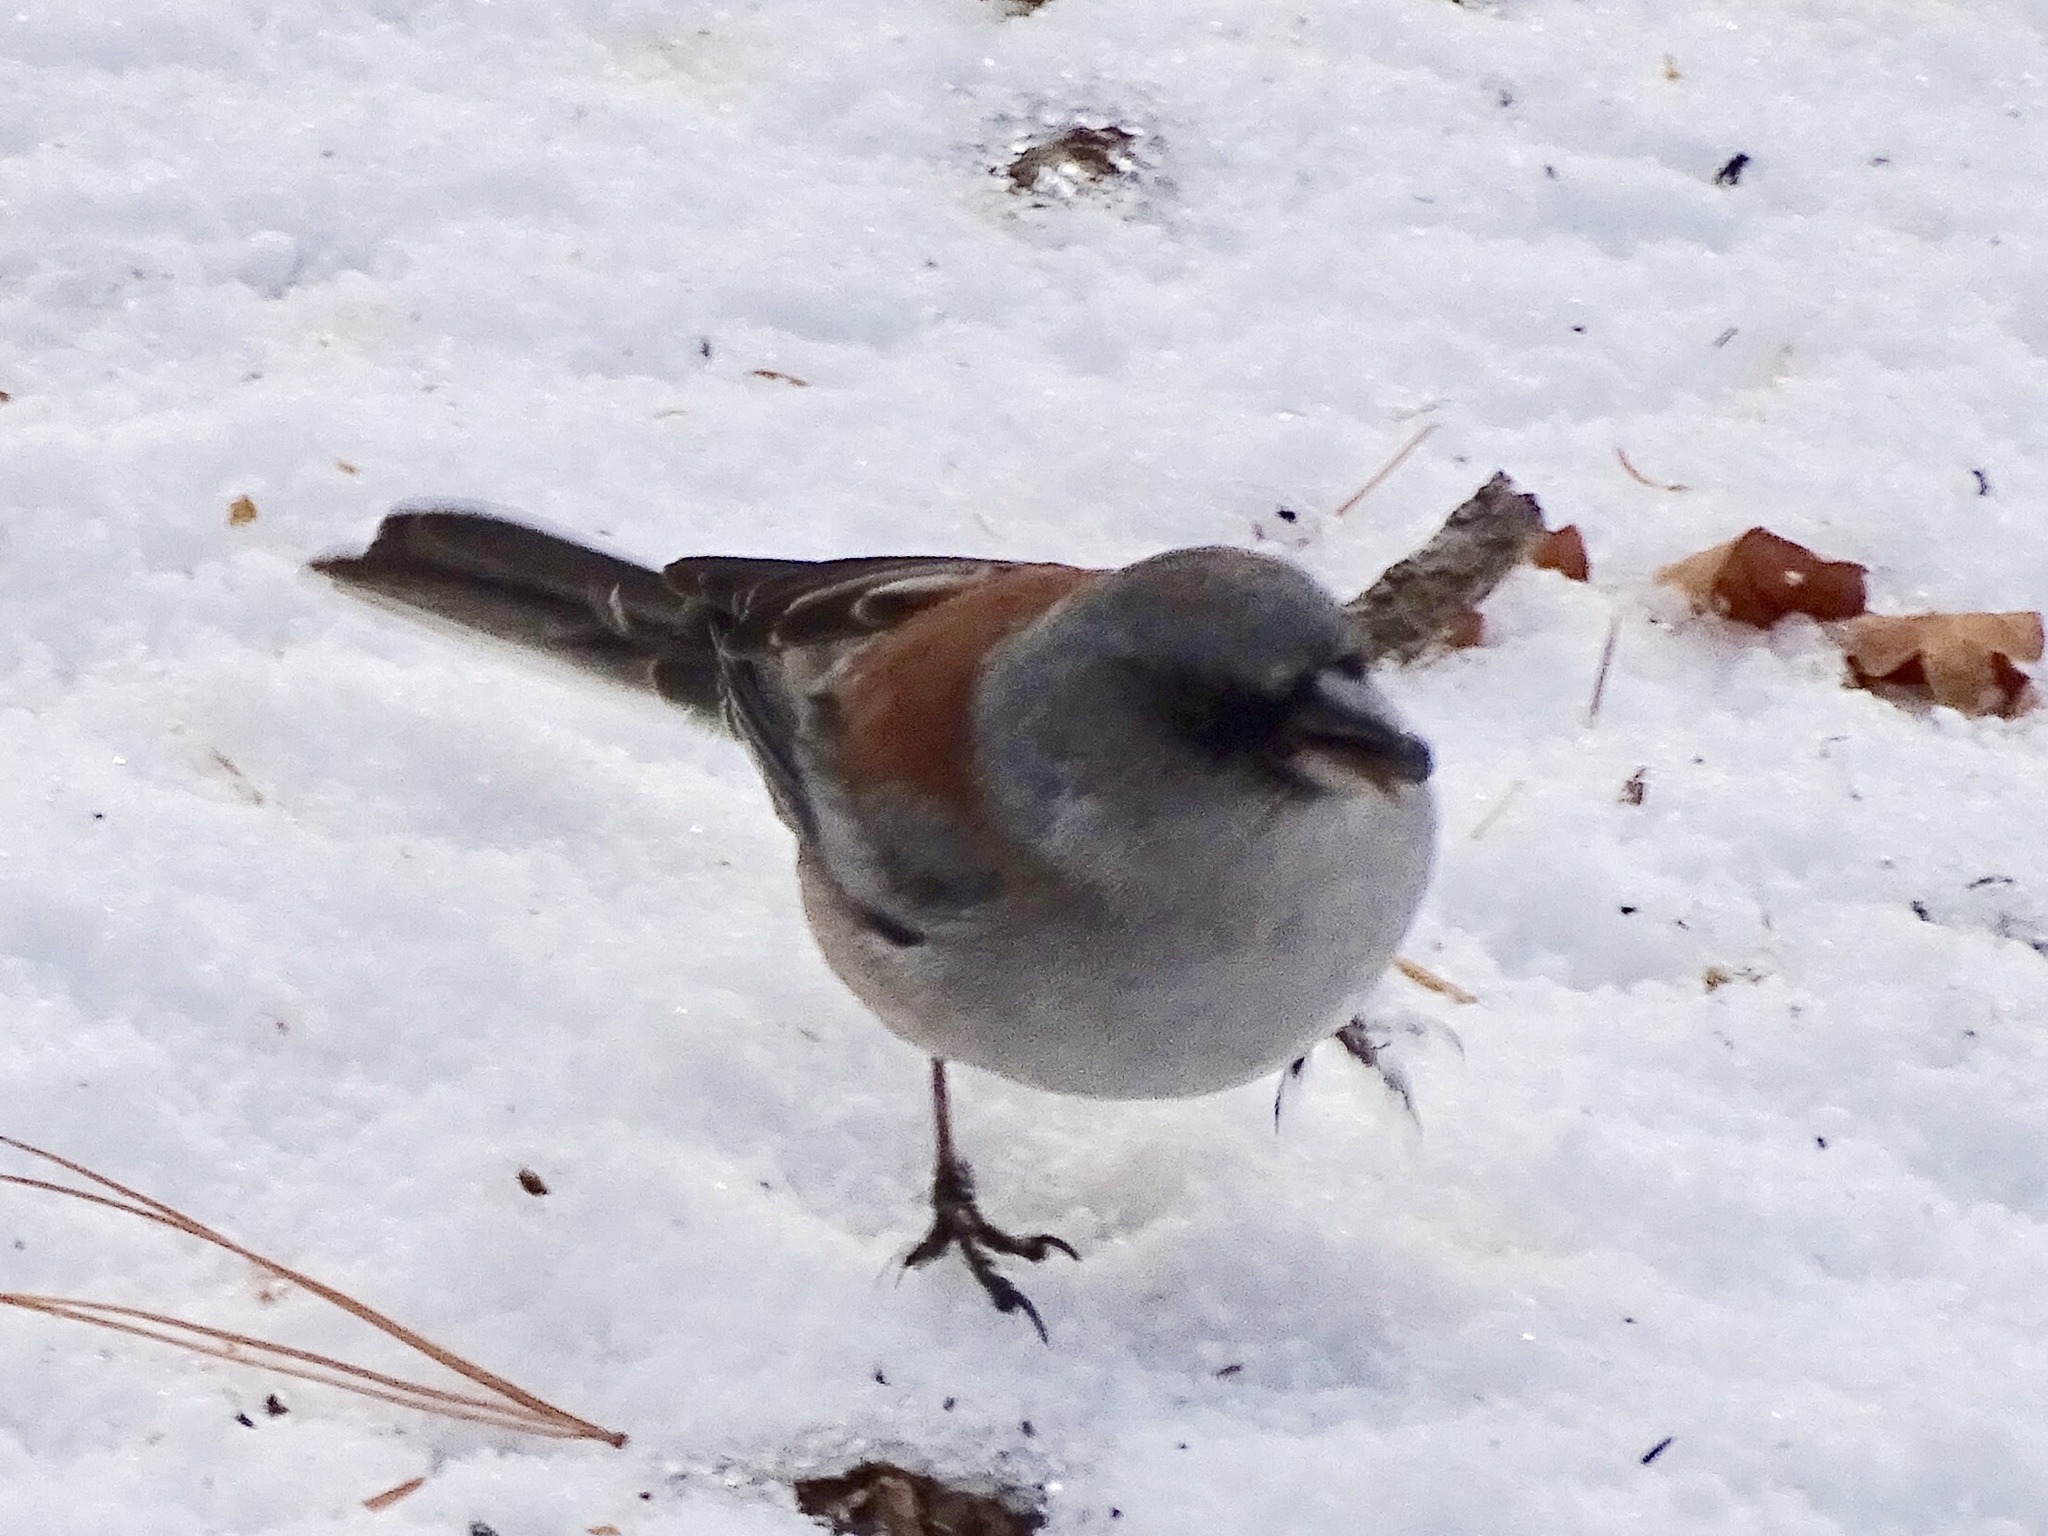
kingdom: Animalia
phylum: Chordata
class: Aves
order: Passeriformes
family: Passerellidae
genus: Junco
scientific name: Junco hyemalis
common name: Dark-eyed junco
